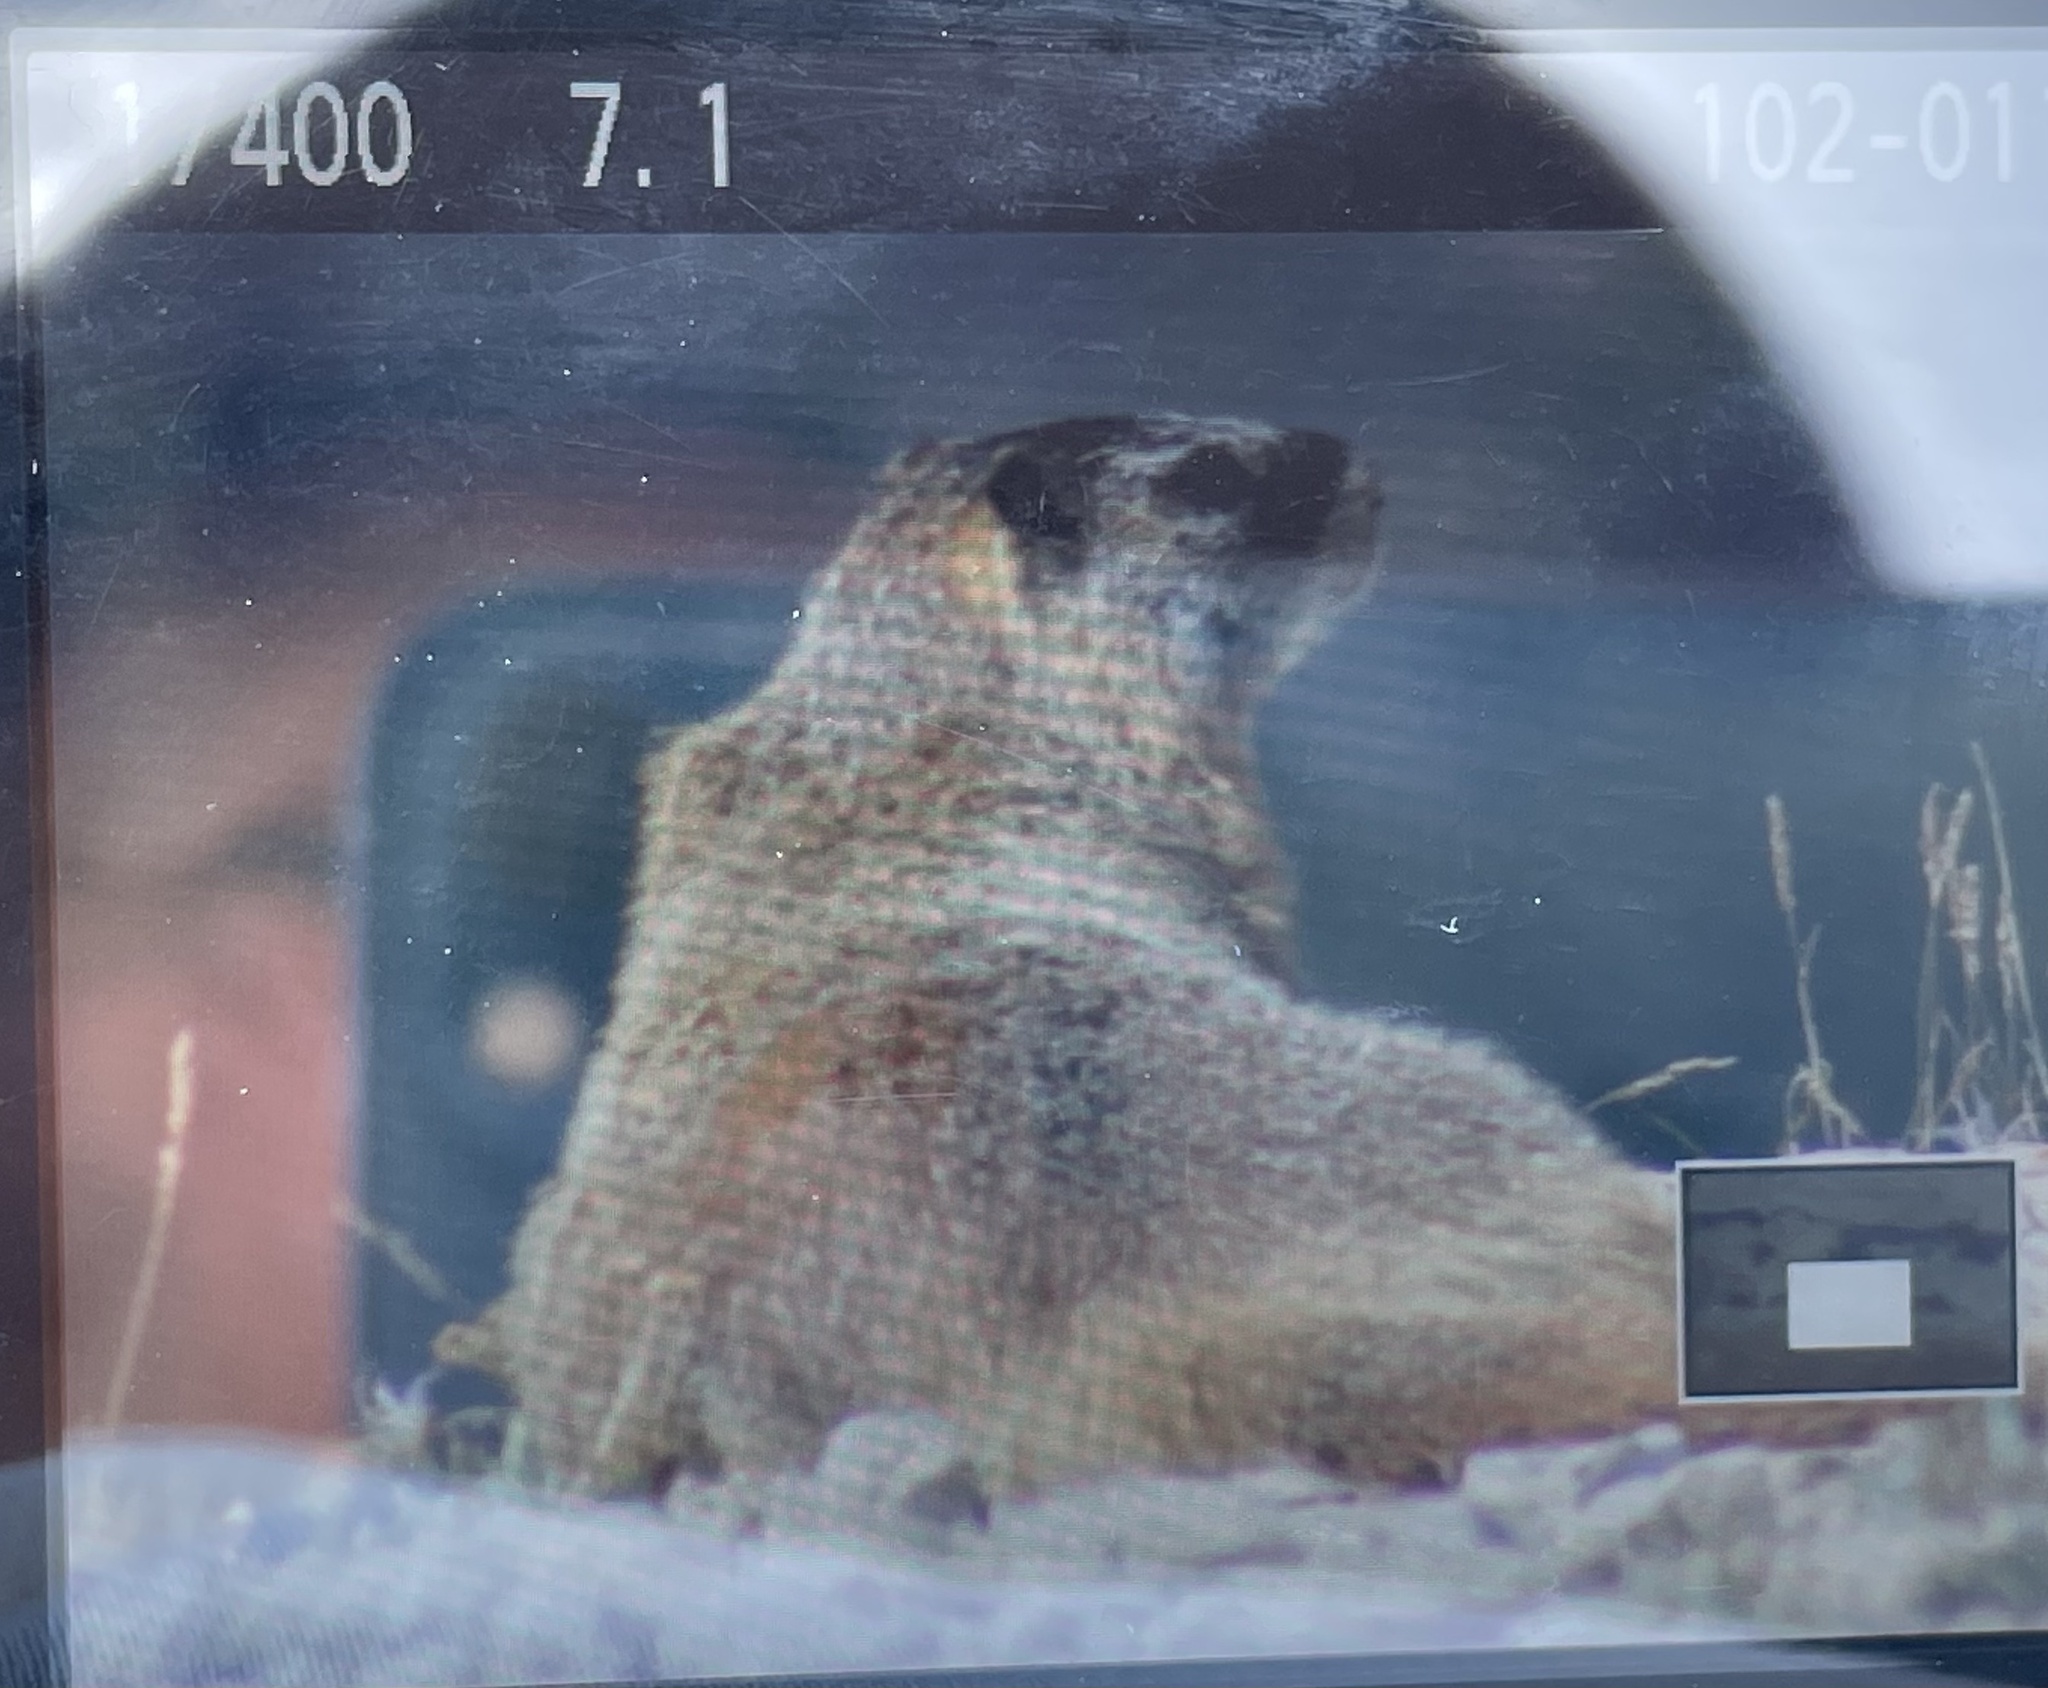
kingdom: Animalia
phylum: Chordata
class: Mammalia
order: Rodentia
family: Sciuridae
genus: Marmota
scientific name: Marmota flaviventris
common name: Yellow-bellied marmot
